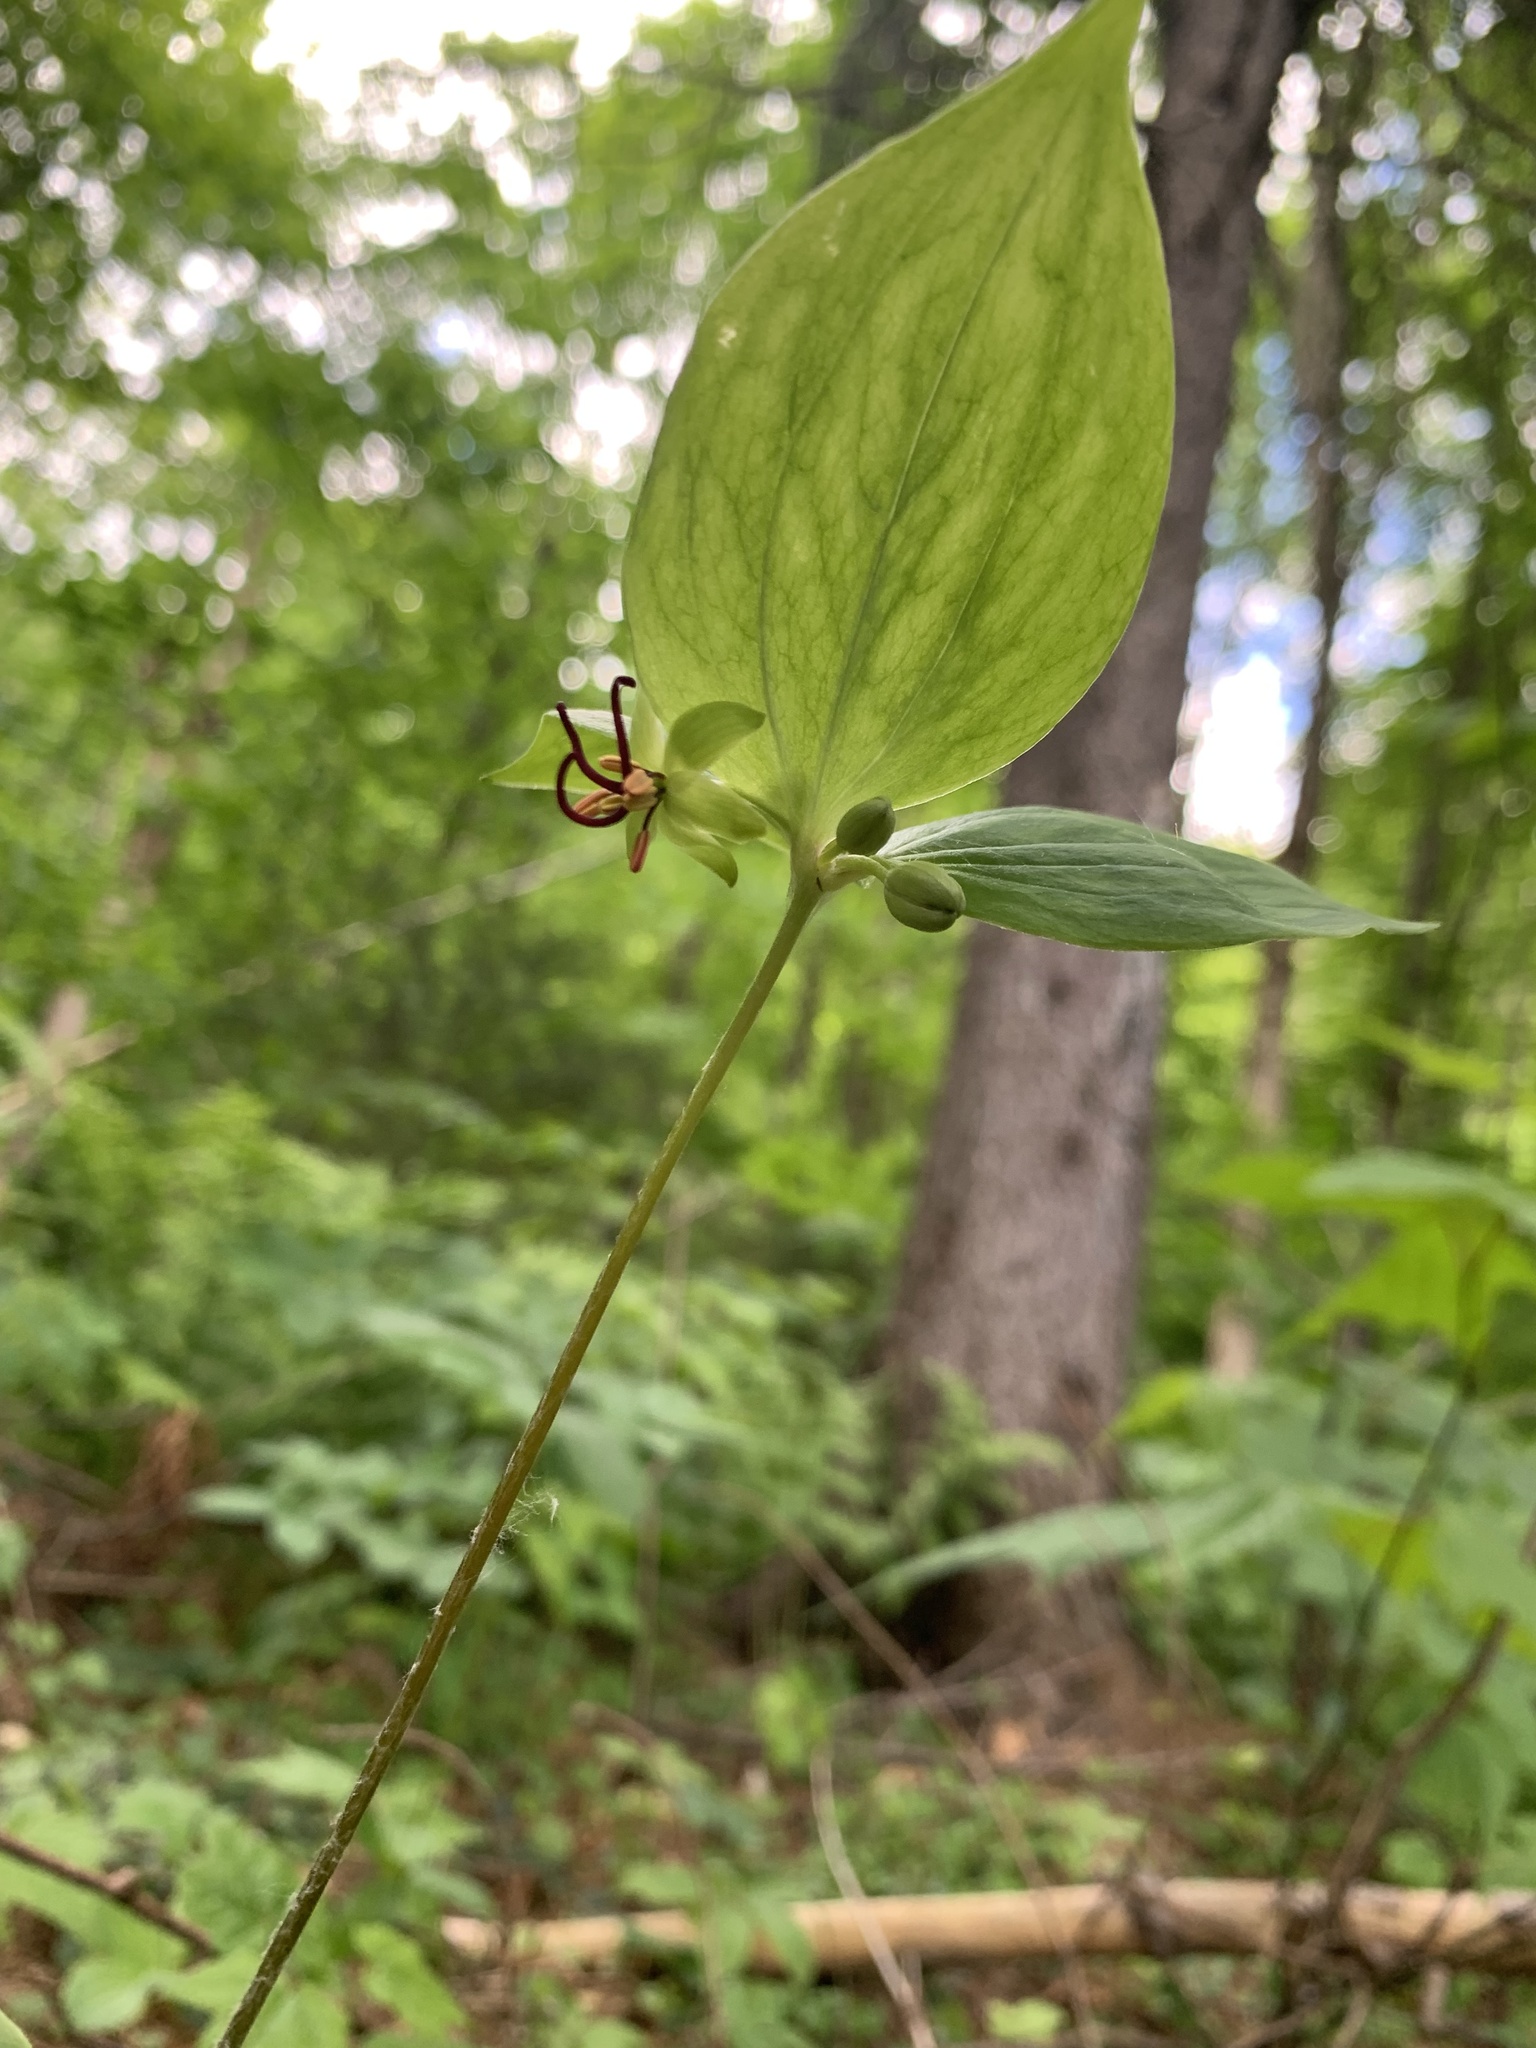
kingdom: Plantae
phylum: Tracheophyta
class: Liliopsida
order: Liliales
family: Liliaceae
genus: Medeola
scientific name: Medeola virginiana
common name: Indian cucumber-root
